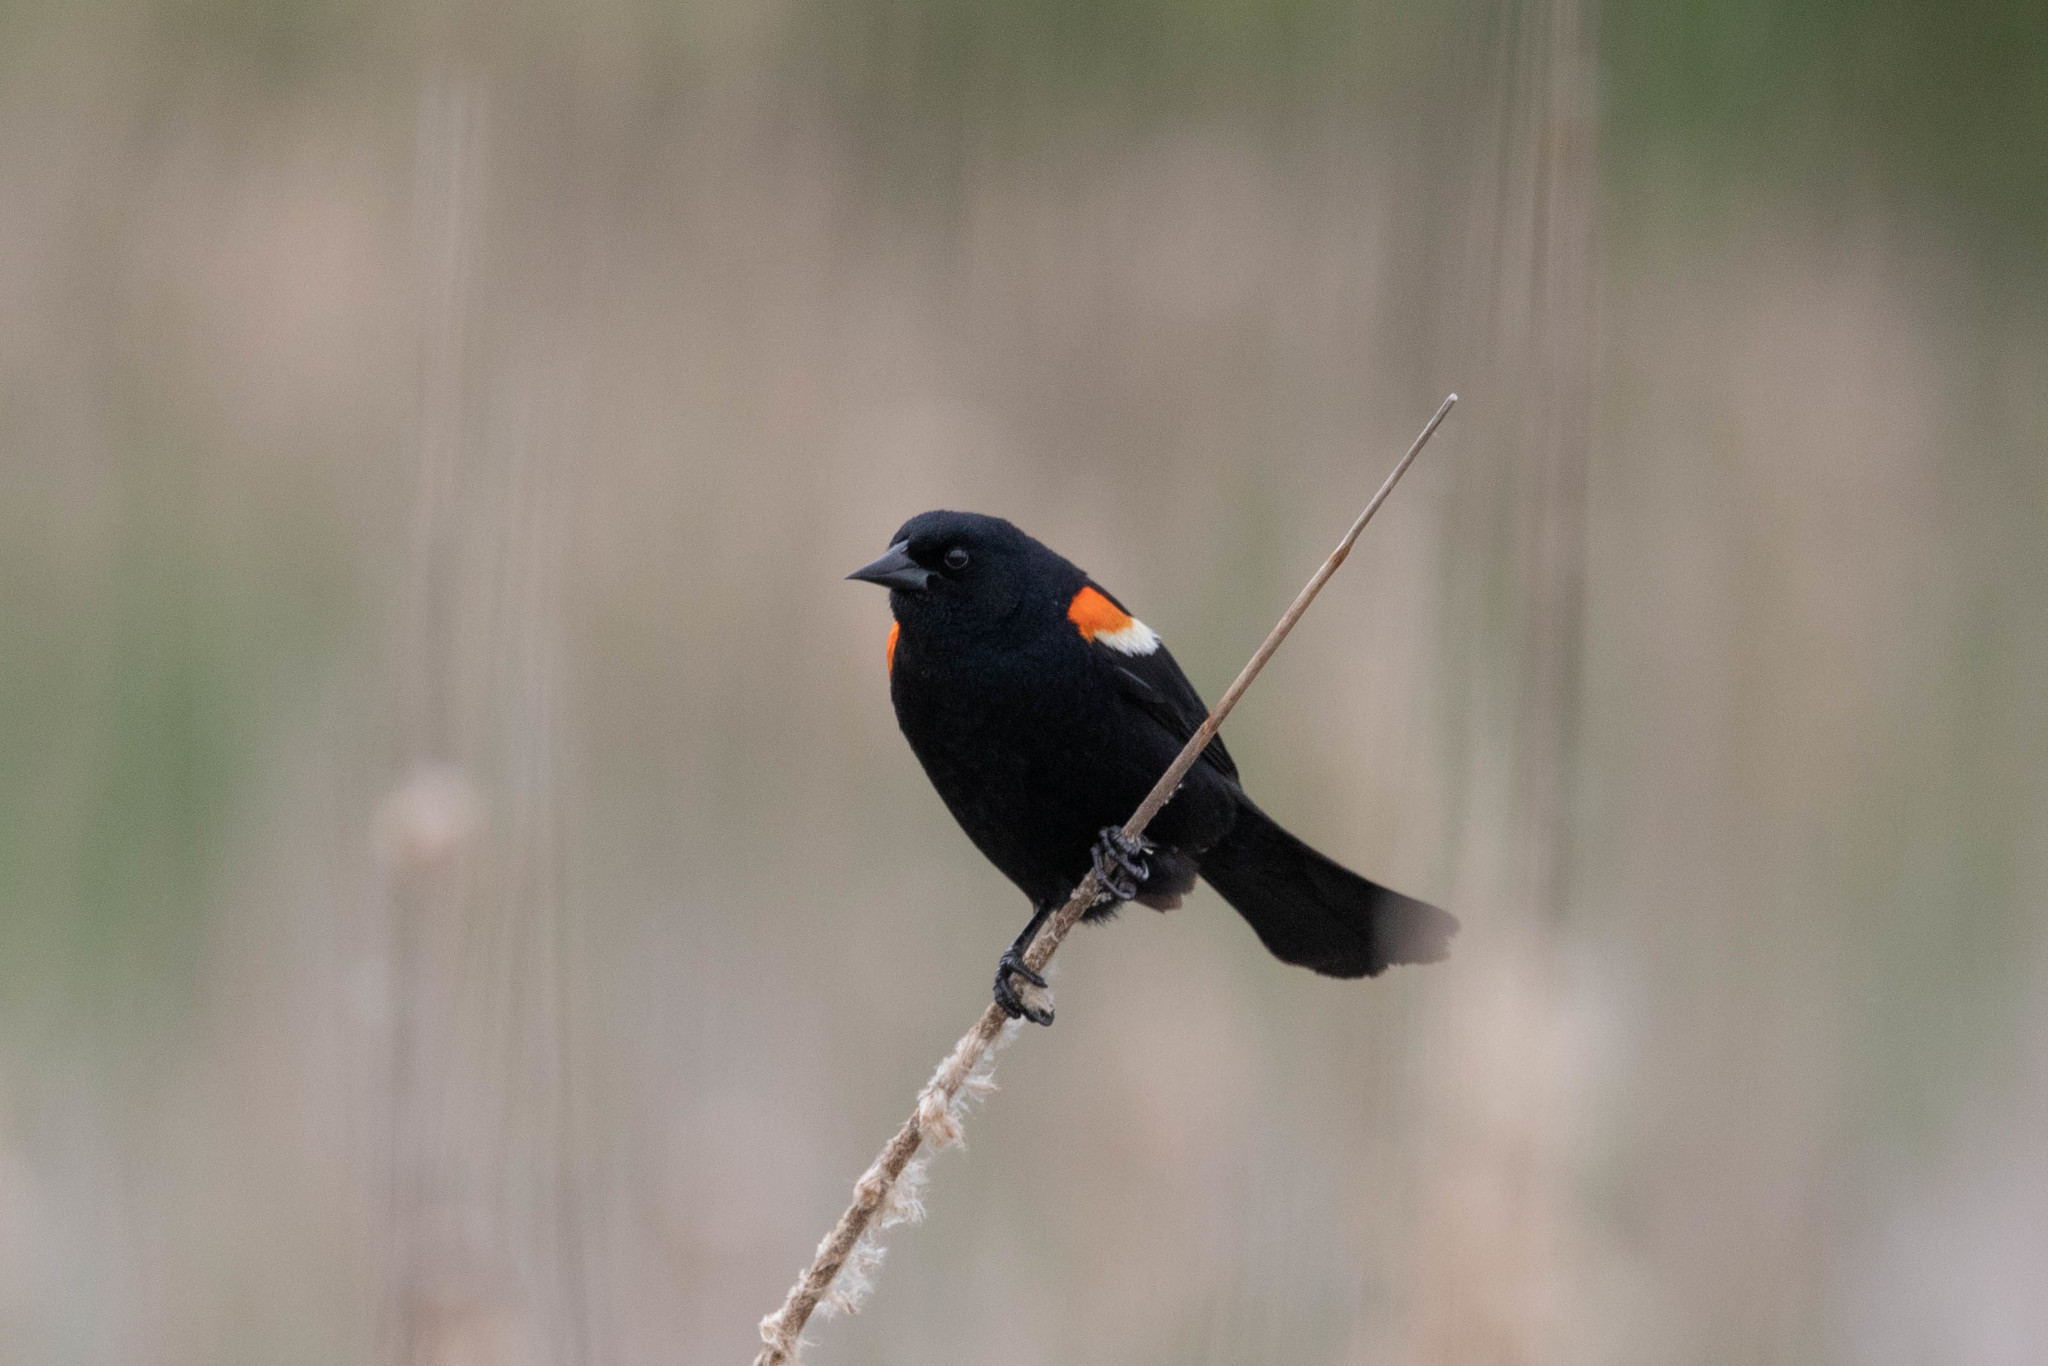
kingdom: Animalia
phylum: Chordata
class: Aves
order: Passeriformes
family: Icteridae
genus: Agelaius
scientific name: Agelaius phoeniceus
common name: Red-winged blackbird
